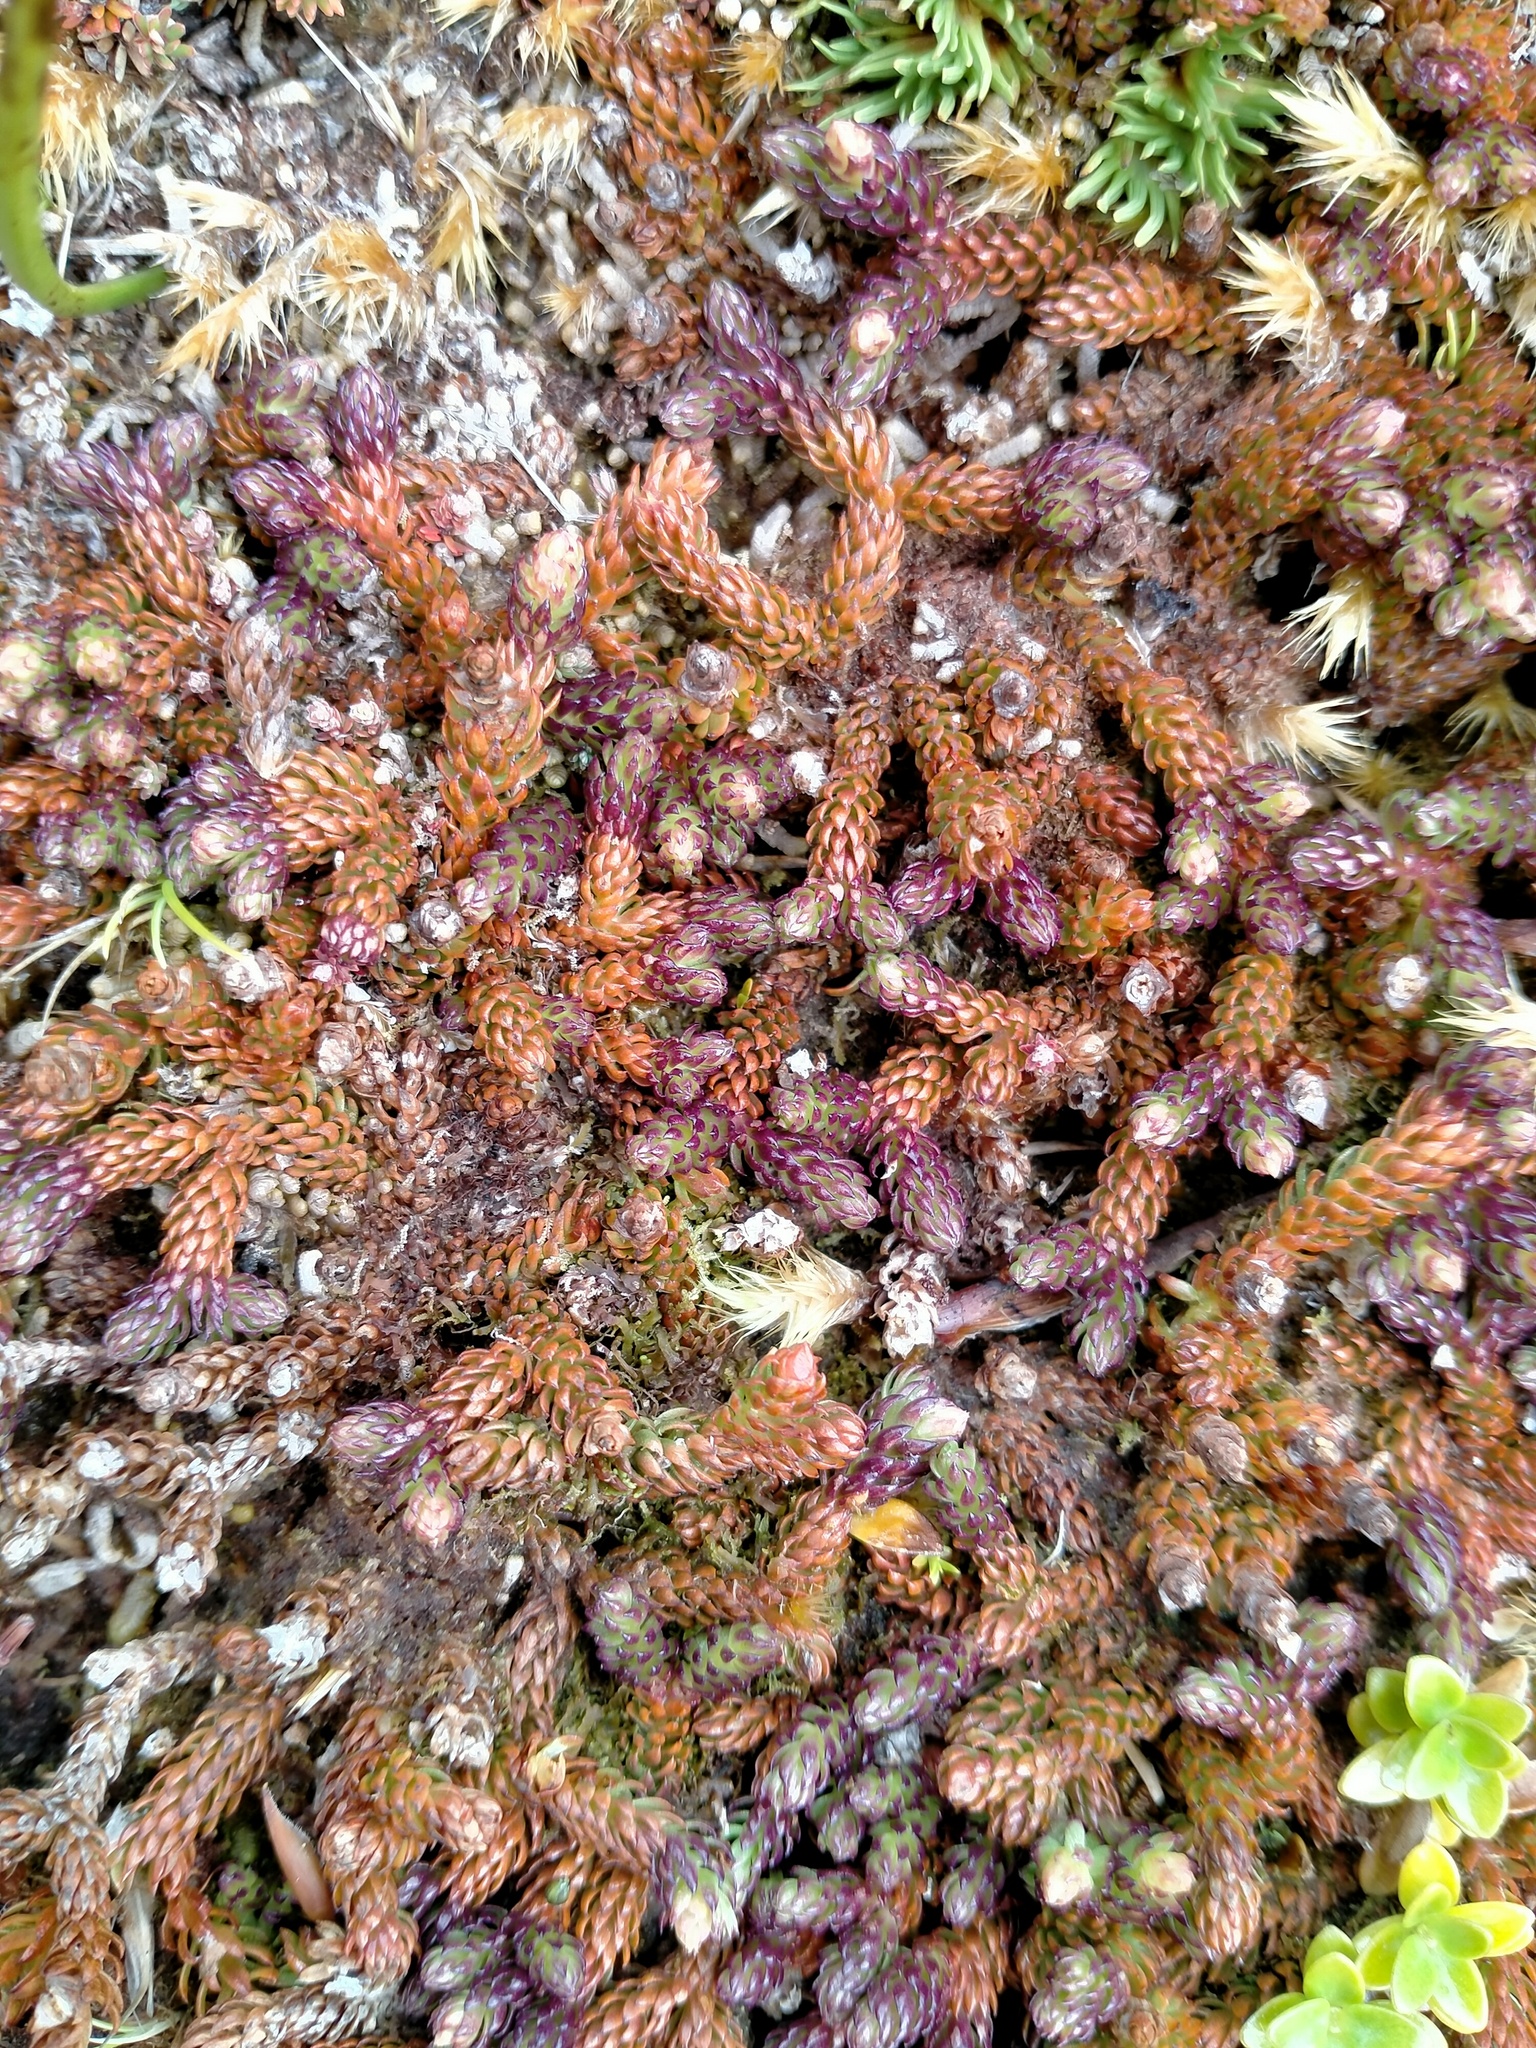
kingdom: Plantae
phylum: Tracheophyta
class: Lycopodiopsida
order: Lycopodiales
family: Lycopodiaceae
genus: Lateristachys
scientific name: Lateristachys diffusa
